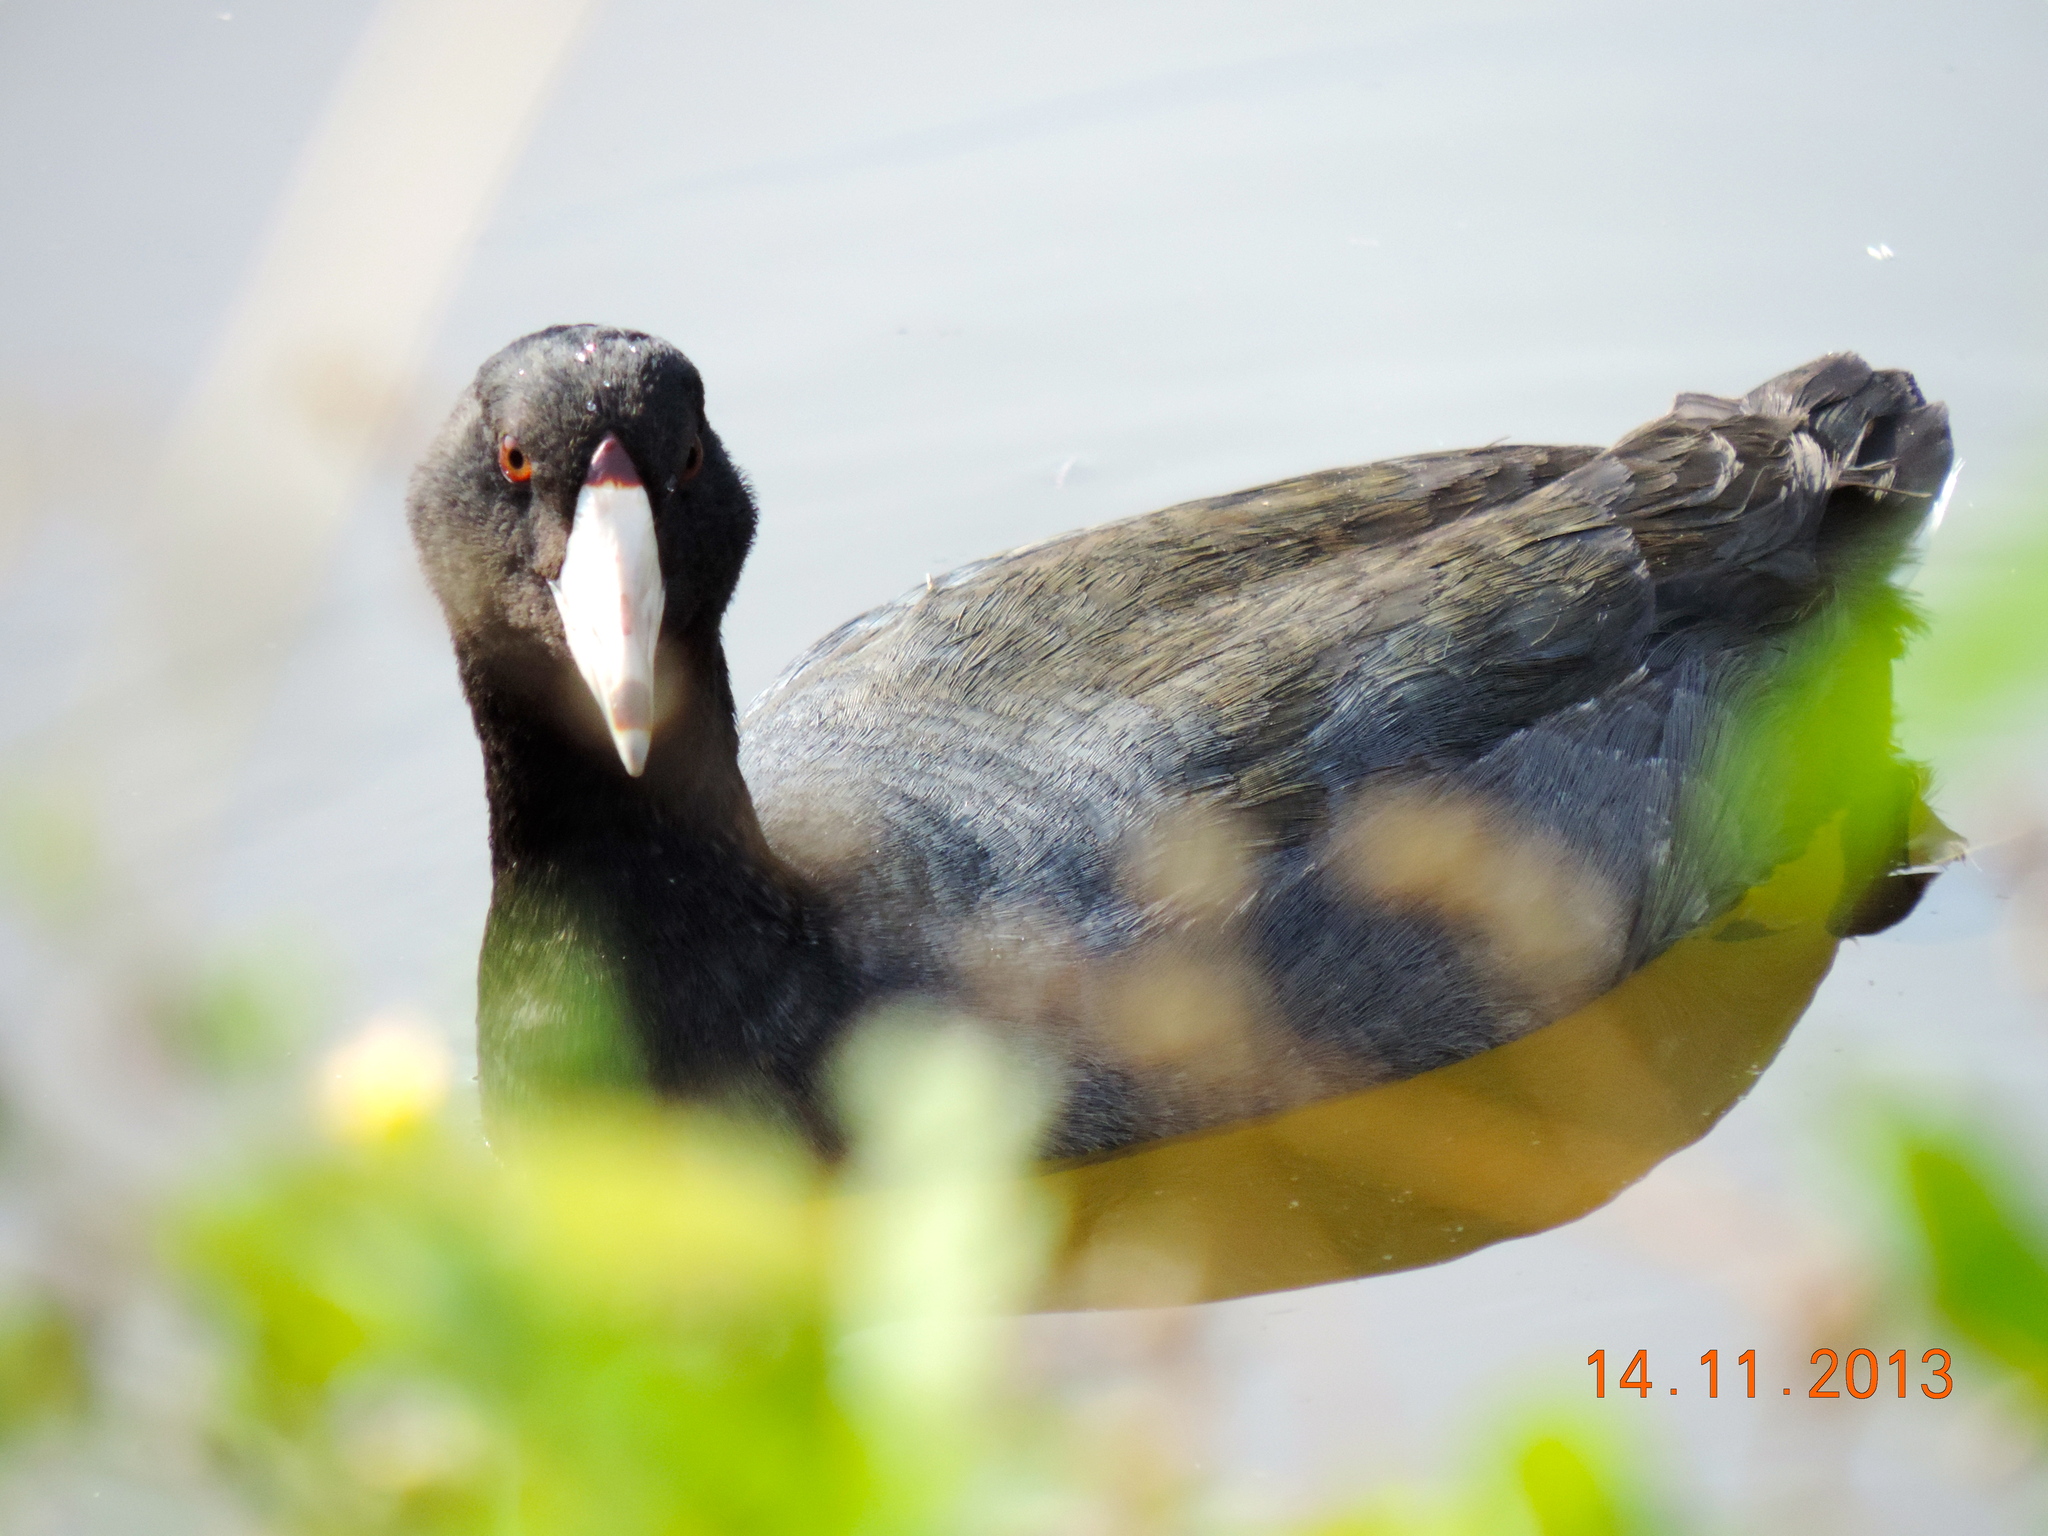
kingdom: Animalia
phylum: Chordata
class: Aves
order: Gruiformes
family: Rallidae
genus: Fulica
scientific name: Fulica americana
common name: American coot
